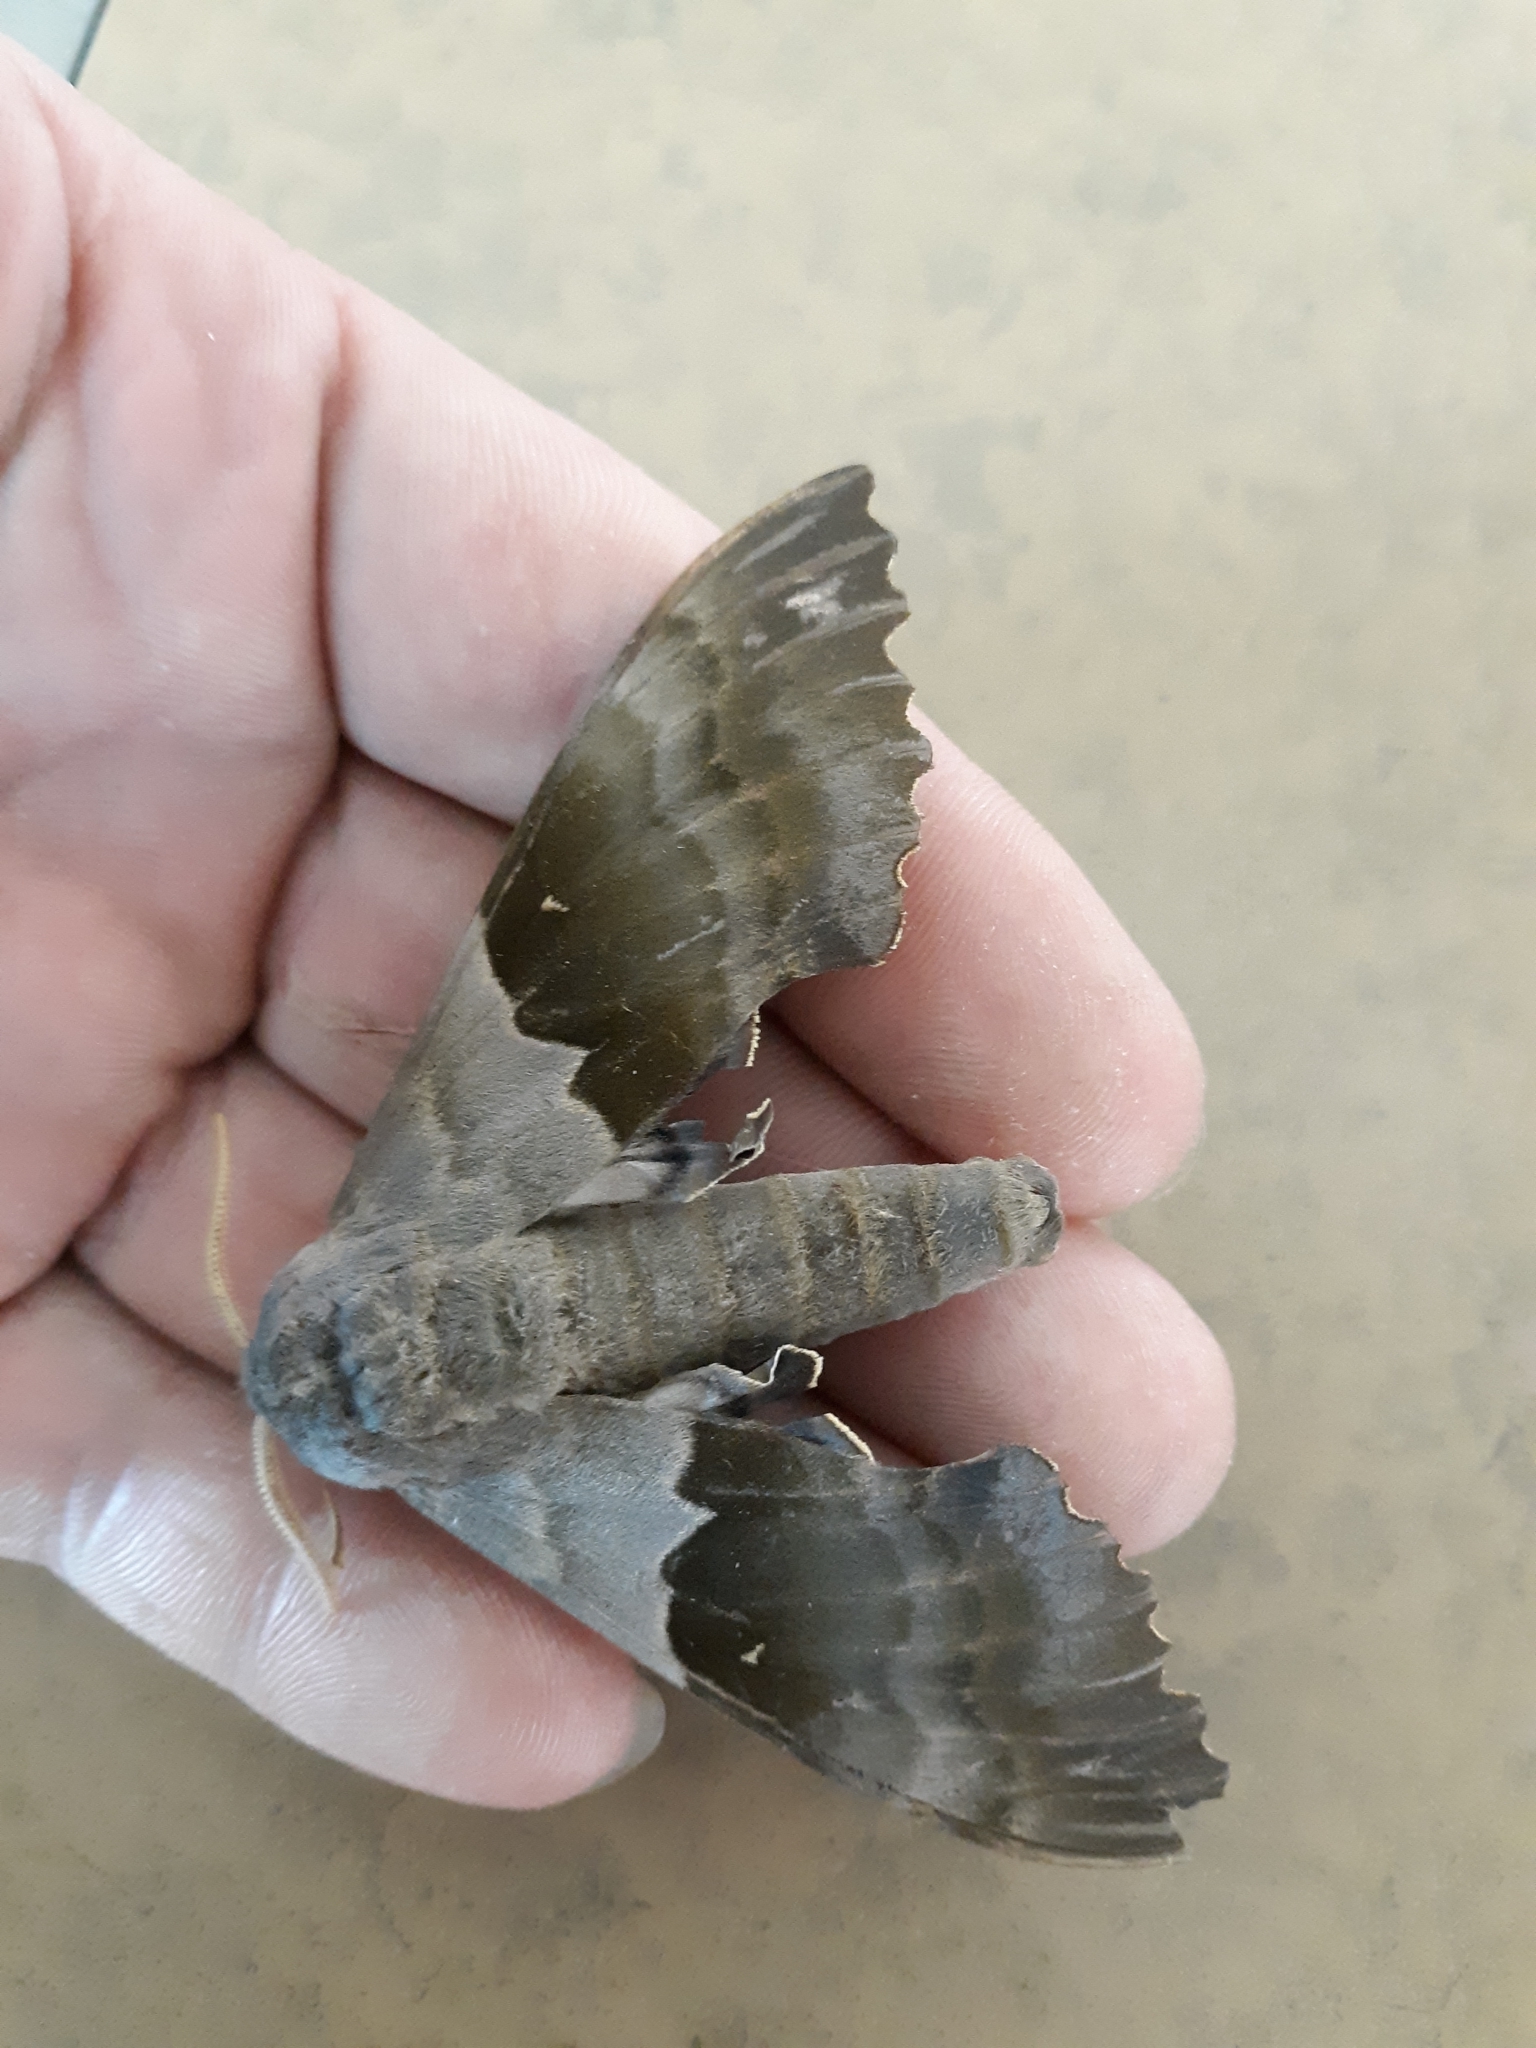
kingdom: Animalia
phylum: Arthropoda
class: Insecta
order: Lepidoptera
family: Sphingidae
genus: Pachysphinx
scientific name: Pachysphinx modesta
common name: Big poplar sphinx
